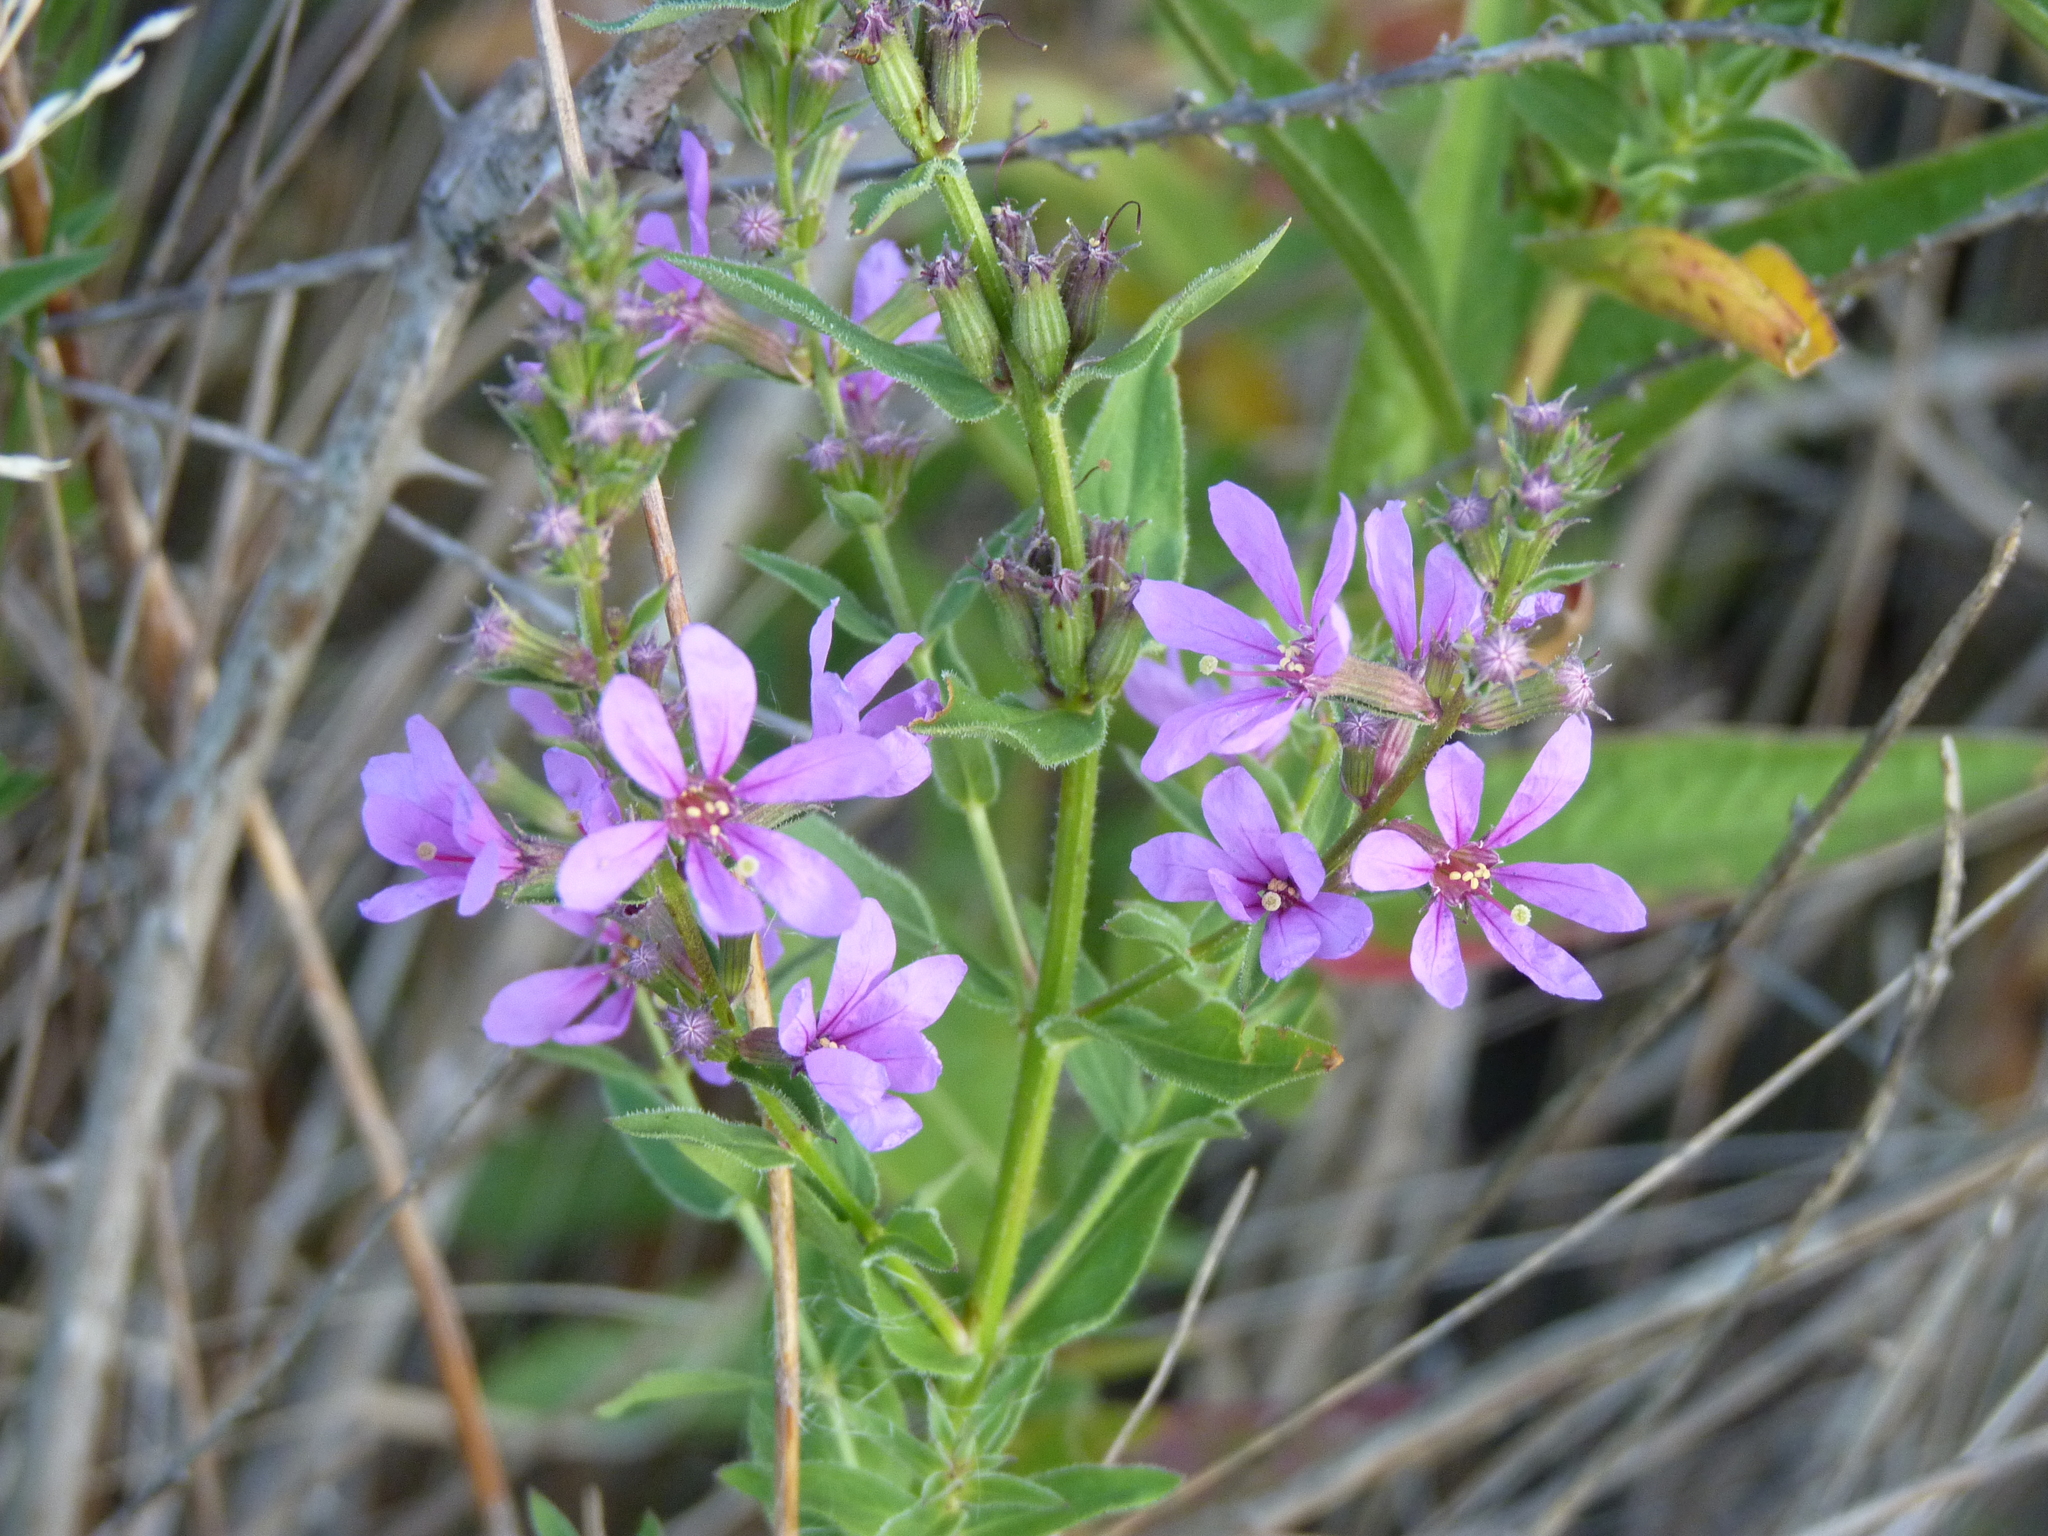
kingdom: Plantae
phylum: Tracheophyta
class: Magnoliopsida
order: Myrtales
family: Lythraceae
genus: Lythrum
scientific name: Lythrum salicaria
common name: Purple loosestrife
